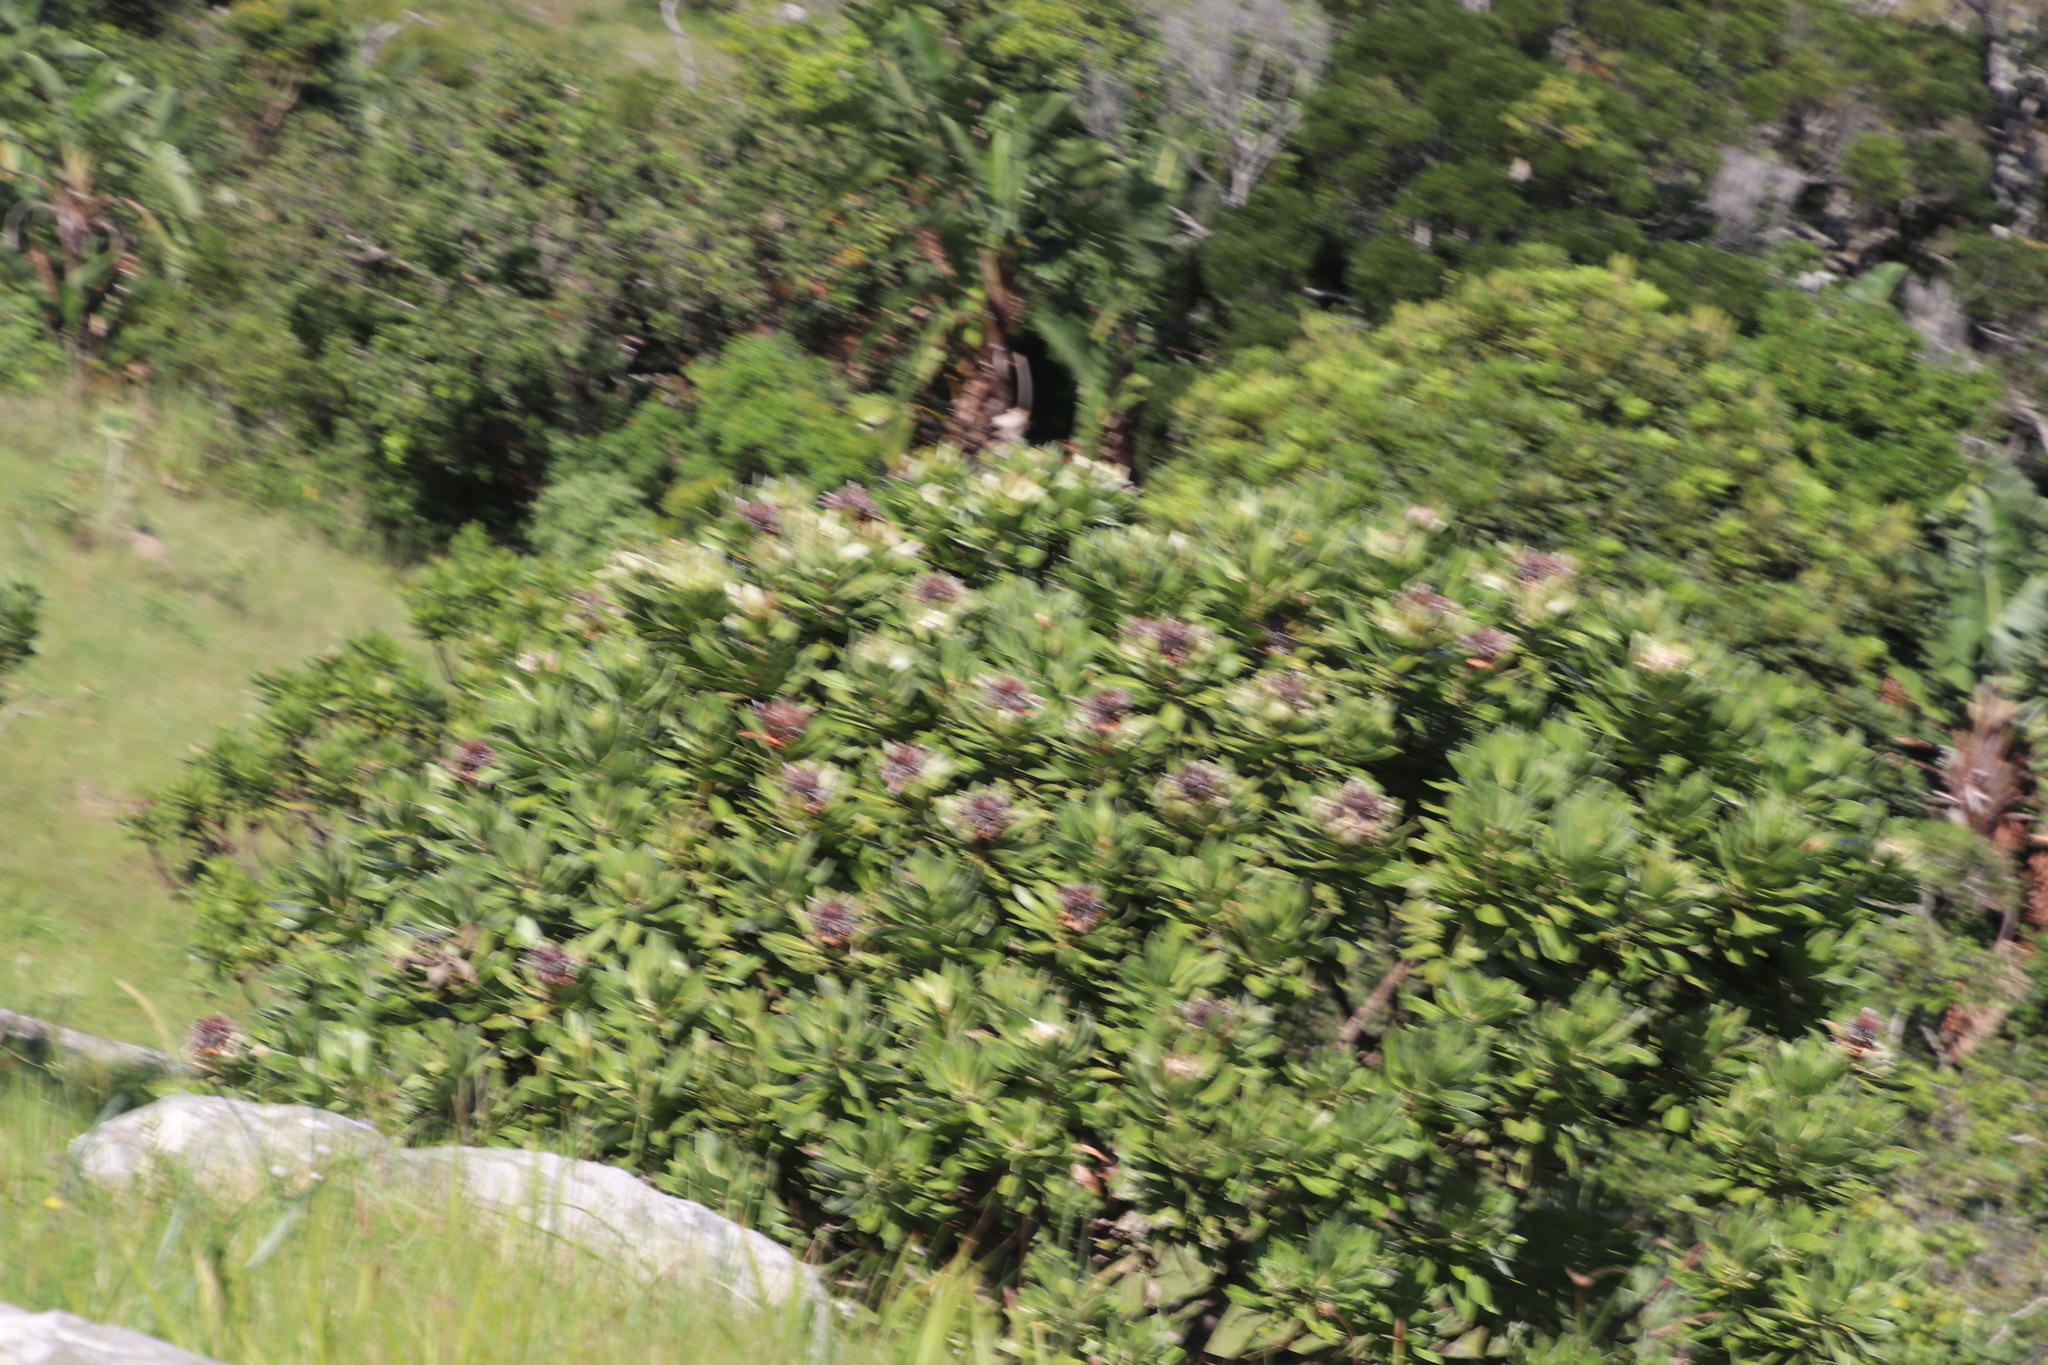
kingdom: Plantae
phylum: Tracheophyta
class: Magnoliopsida
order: Proteales
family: Proteaceae
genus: Protea
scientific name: Protea roupelliae
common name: Silver sugarbush
